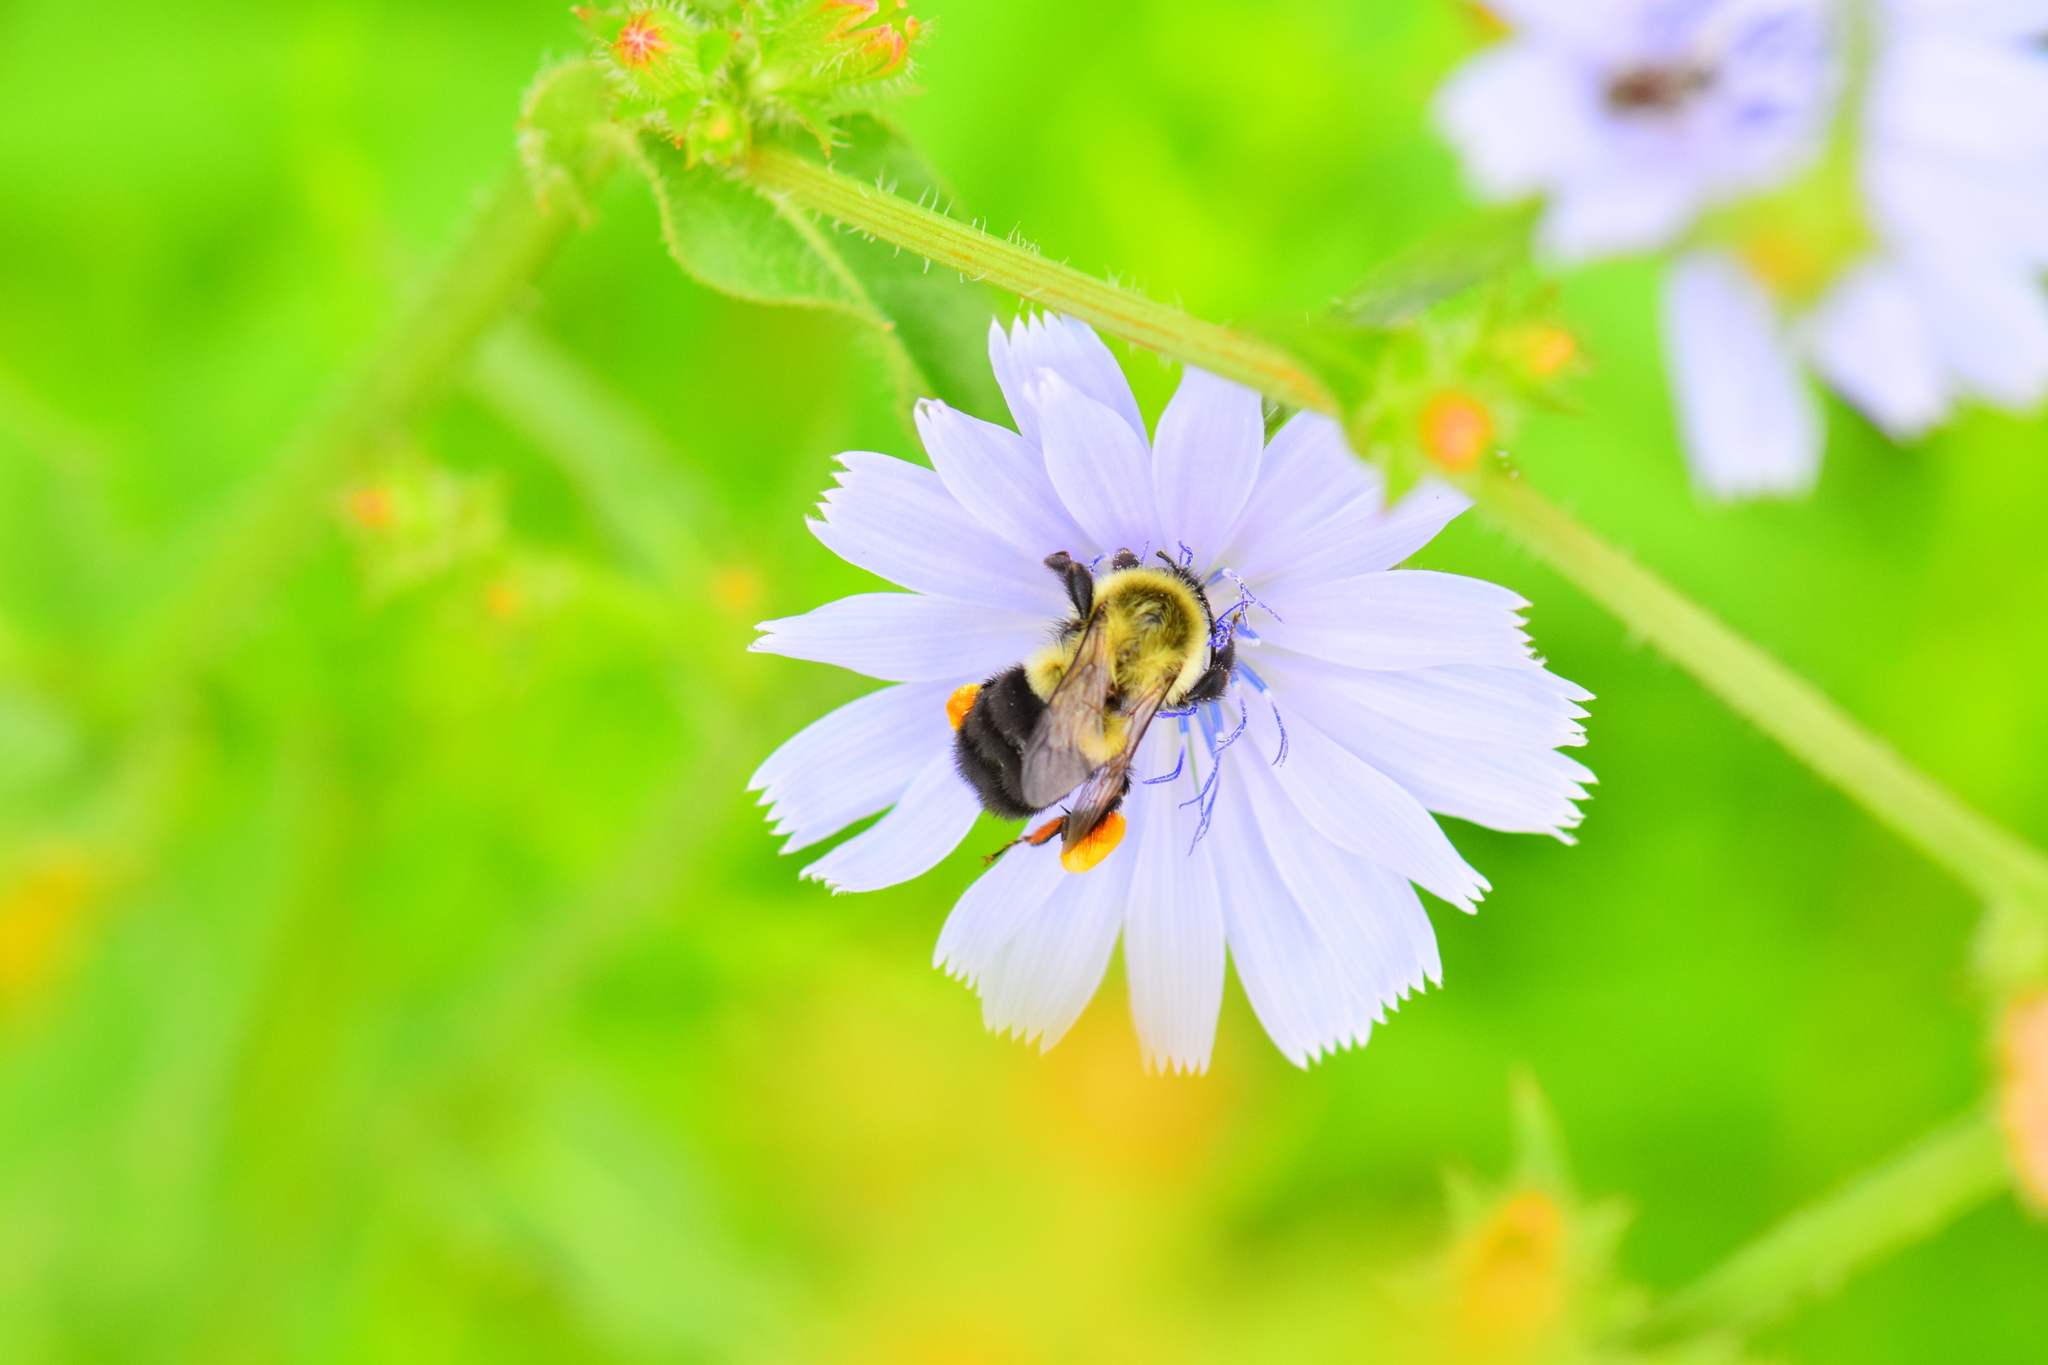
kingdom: Animalia
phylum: Arthropoda
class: Insecta
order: Hymenoptera
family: Apidae
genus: Bombus
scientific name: Bombus impatiens
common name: Common eastern bumble bee
